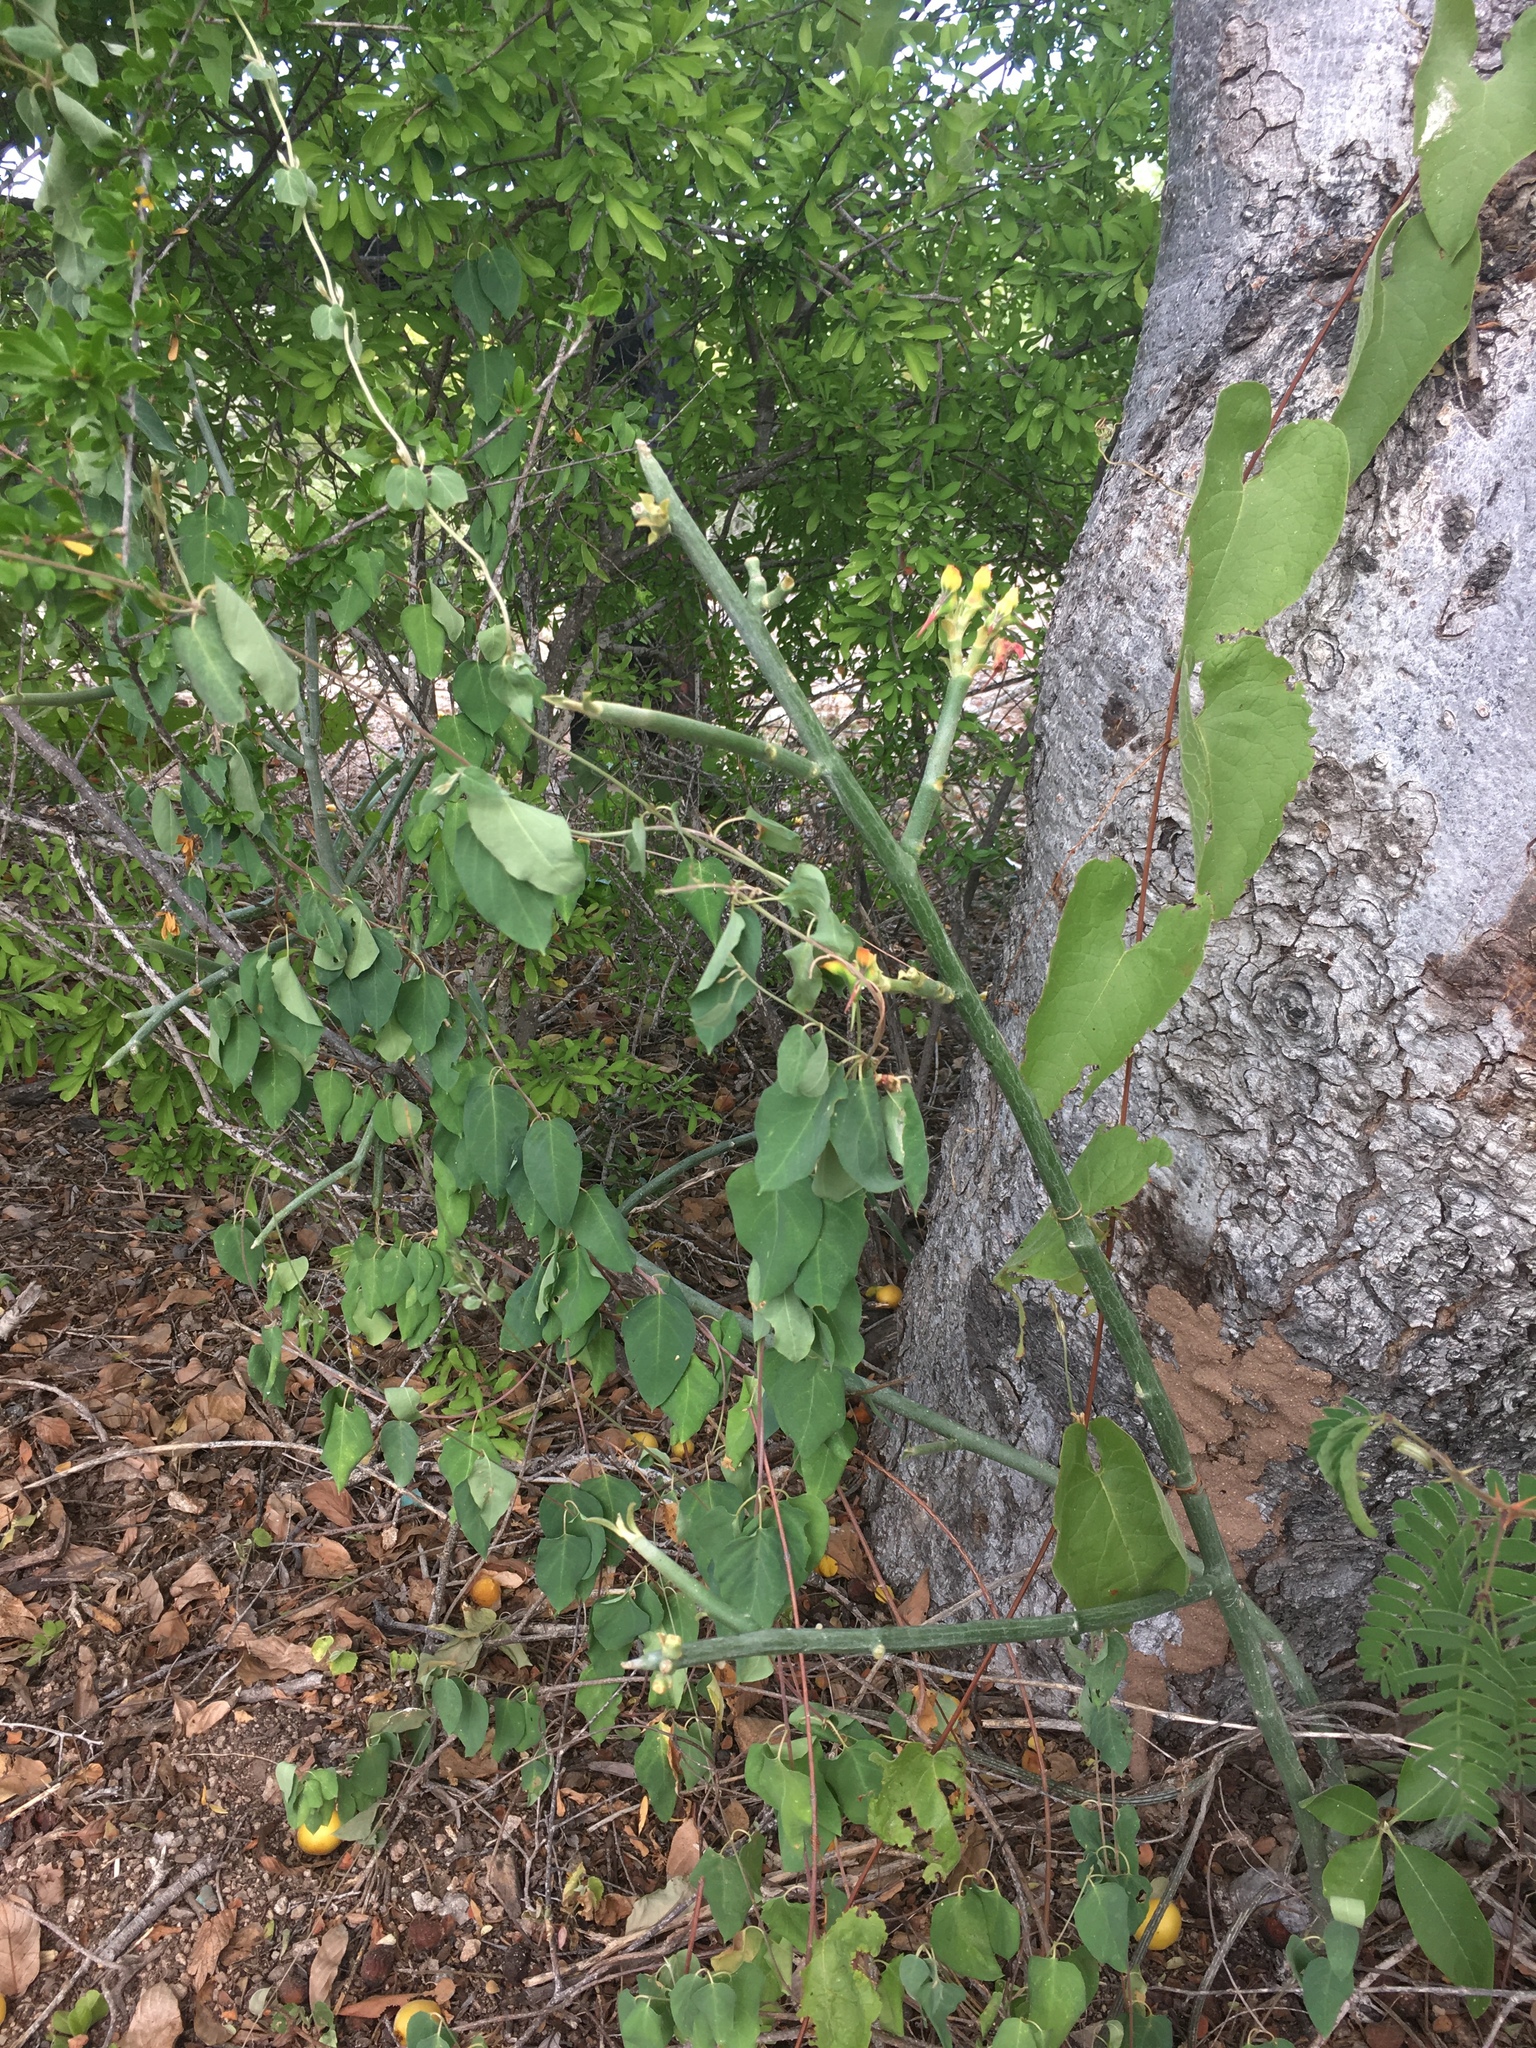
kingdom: Plantae
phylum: Tracheophyta
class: Magnoliopsida
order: Malpighiales
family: Euphorbiaceae
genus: Euphorbia
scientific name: Euphorbia lomelii
